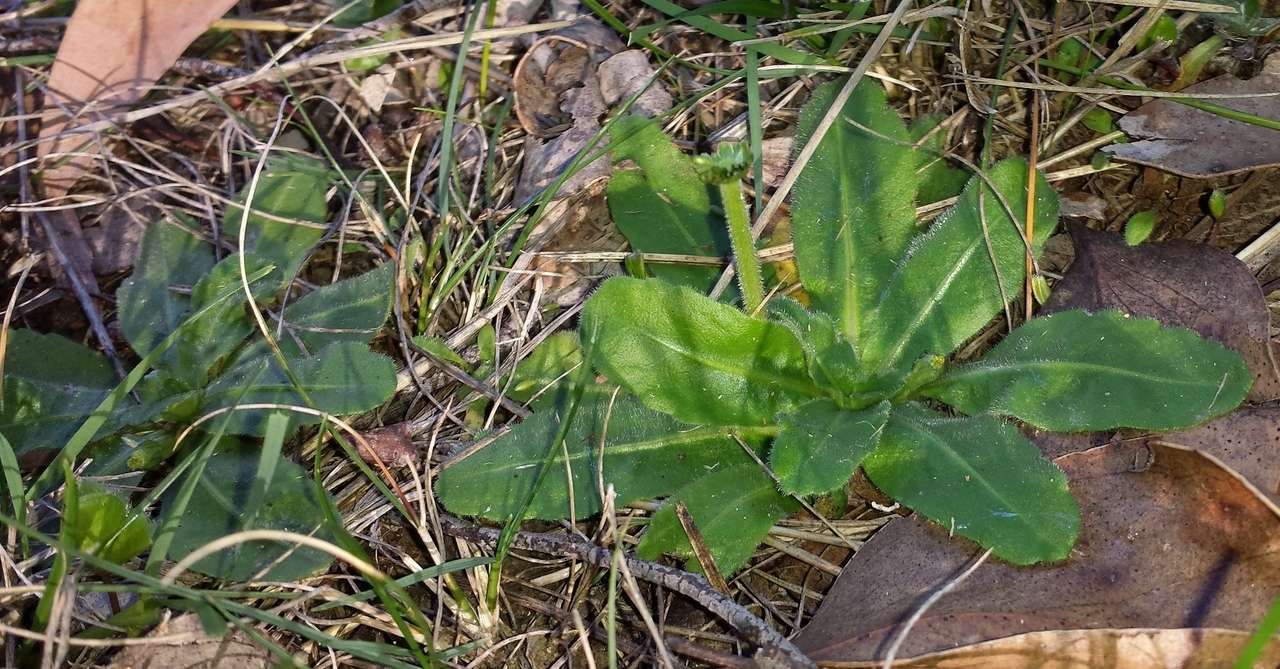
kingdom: Plantae
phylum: Tracheophyta
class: Magnoliopsida
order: Asterales
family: Asteraceae
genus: Solenogyne
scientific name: Solenogyne gunnii
